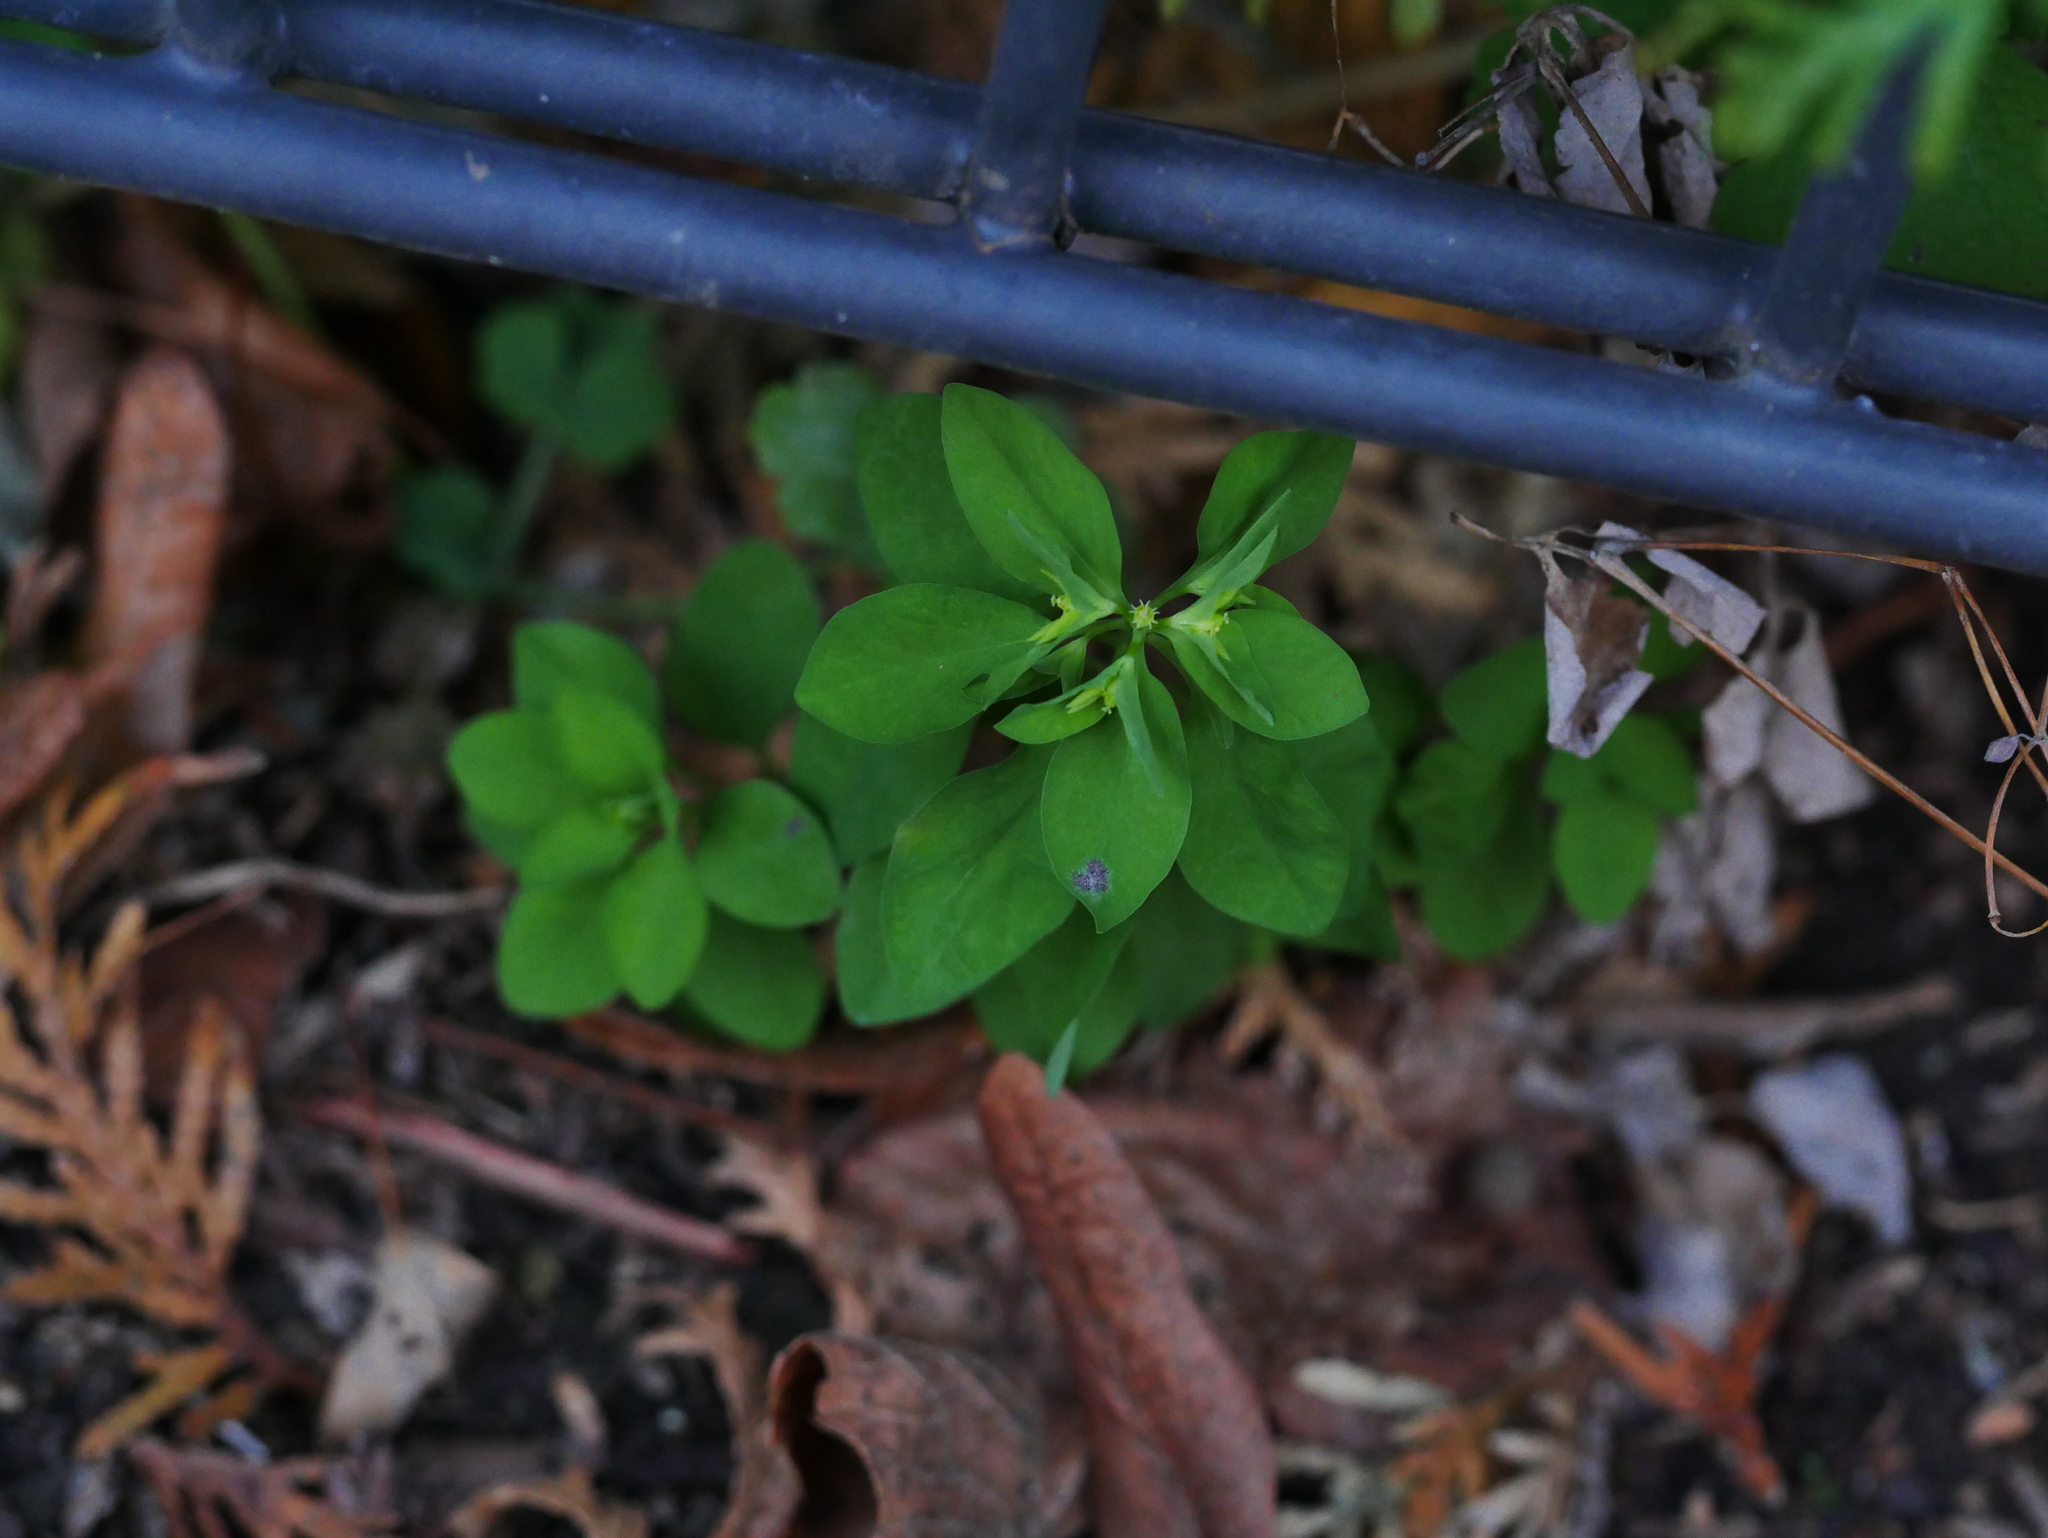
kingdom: Plantae
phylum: Tracheophyta
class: Magnoliopsida
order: Malpighiales
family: Euphorbiaceae
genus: Euphorbia
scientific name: Euphorbia peplus
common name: Petty spurge
